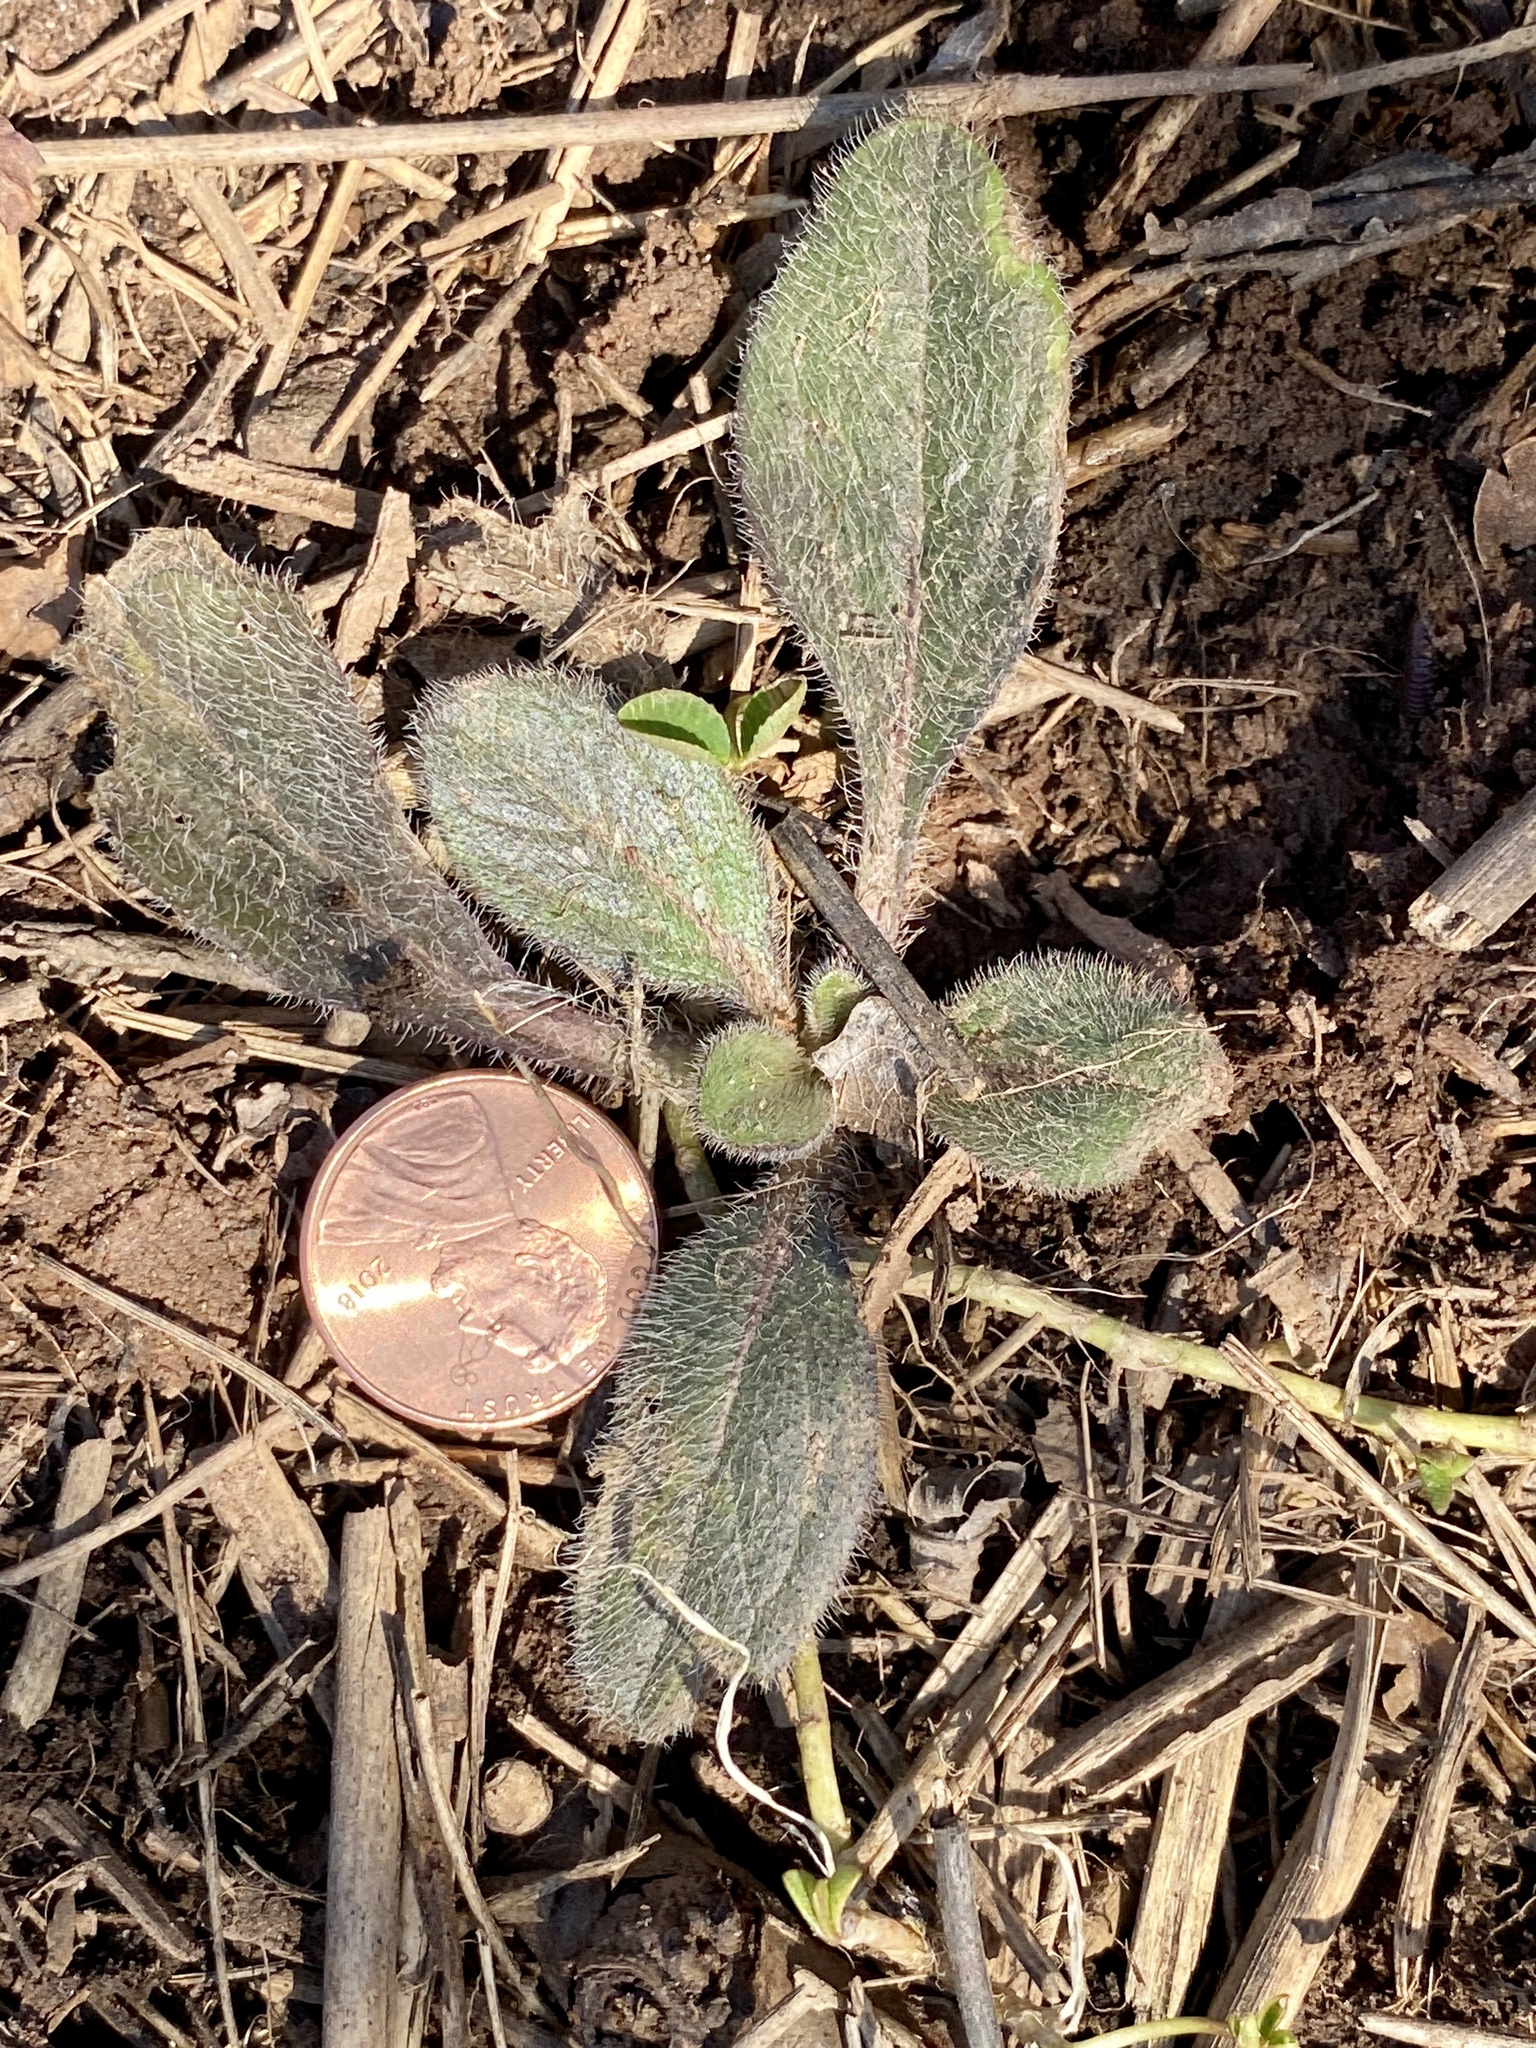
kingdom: Plantae
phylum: Tracheophyta
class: Magnoliopsida
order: Asterales
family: Asteraceae
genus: Rudbeckia
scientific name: Rudbeckia hirta
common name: Black-eyed-susan
